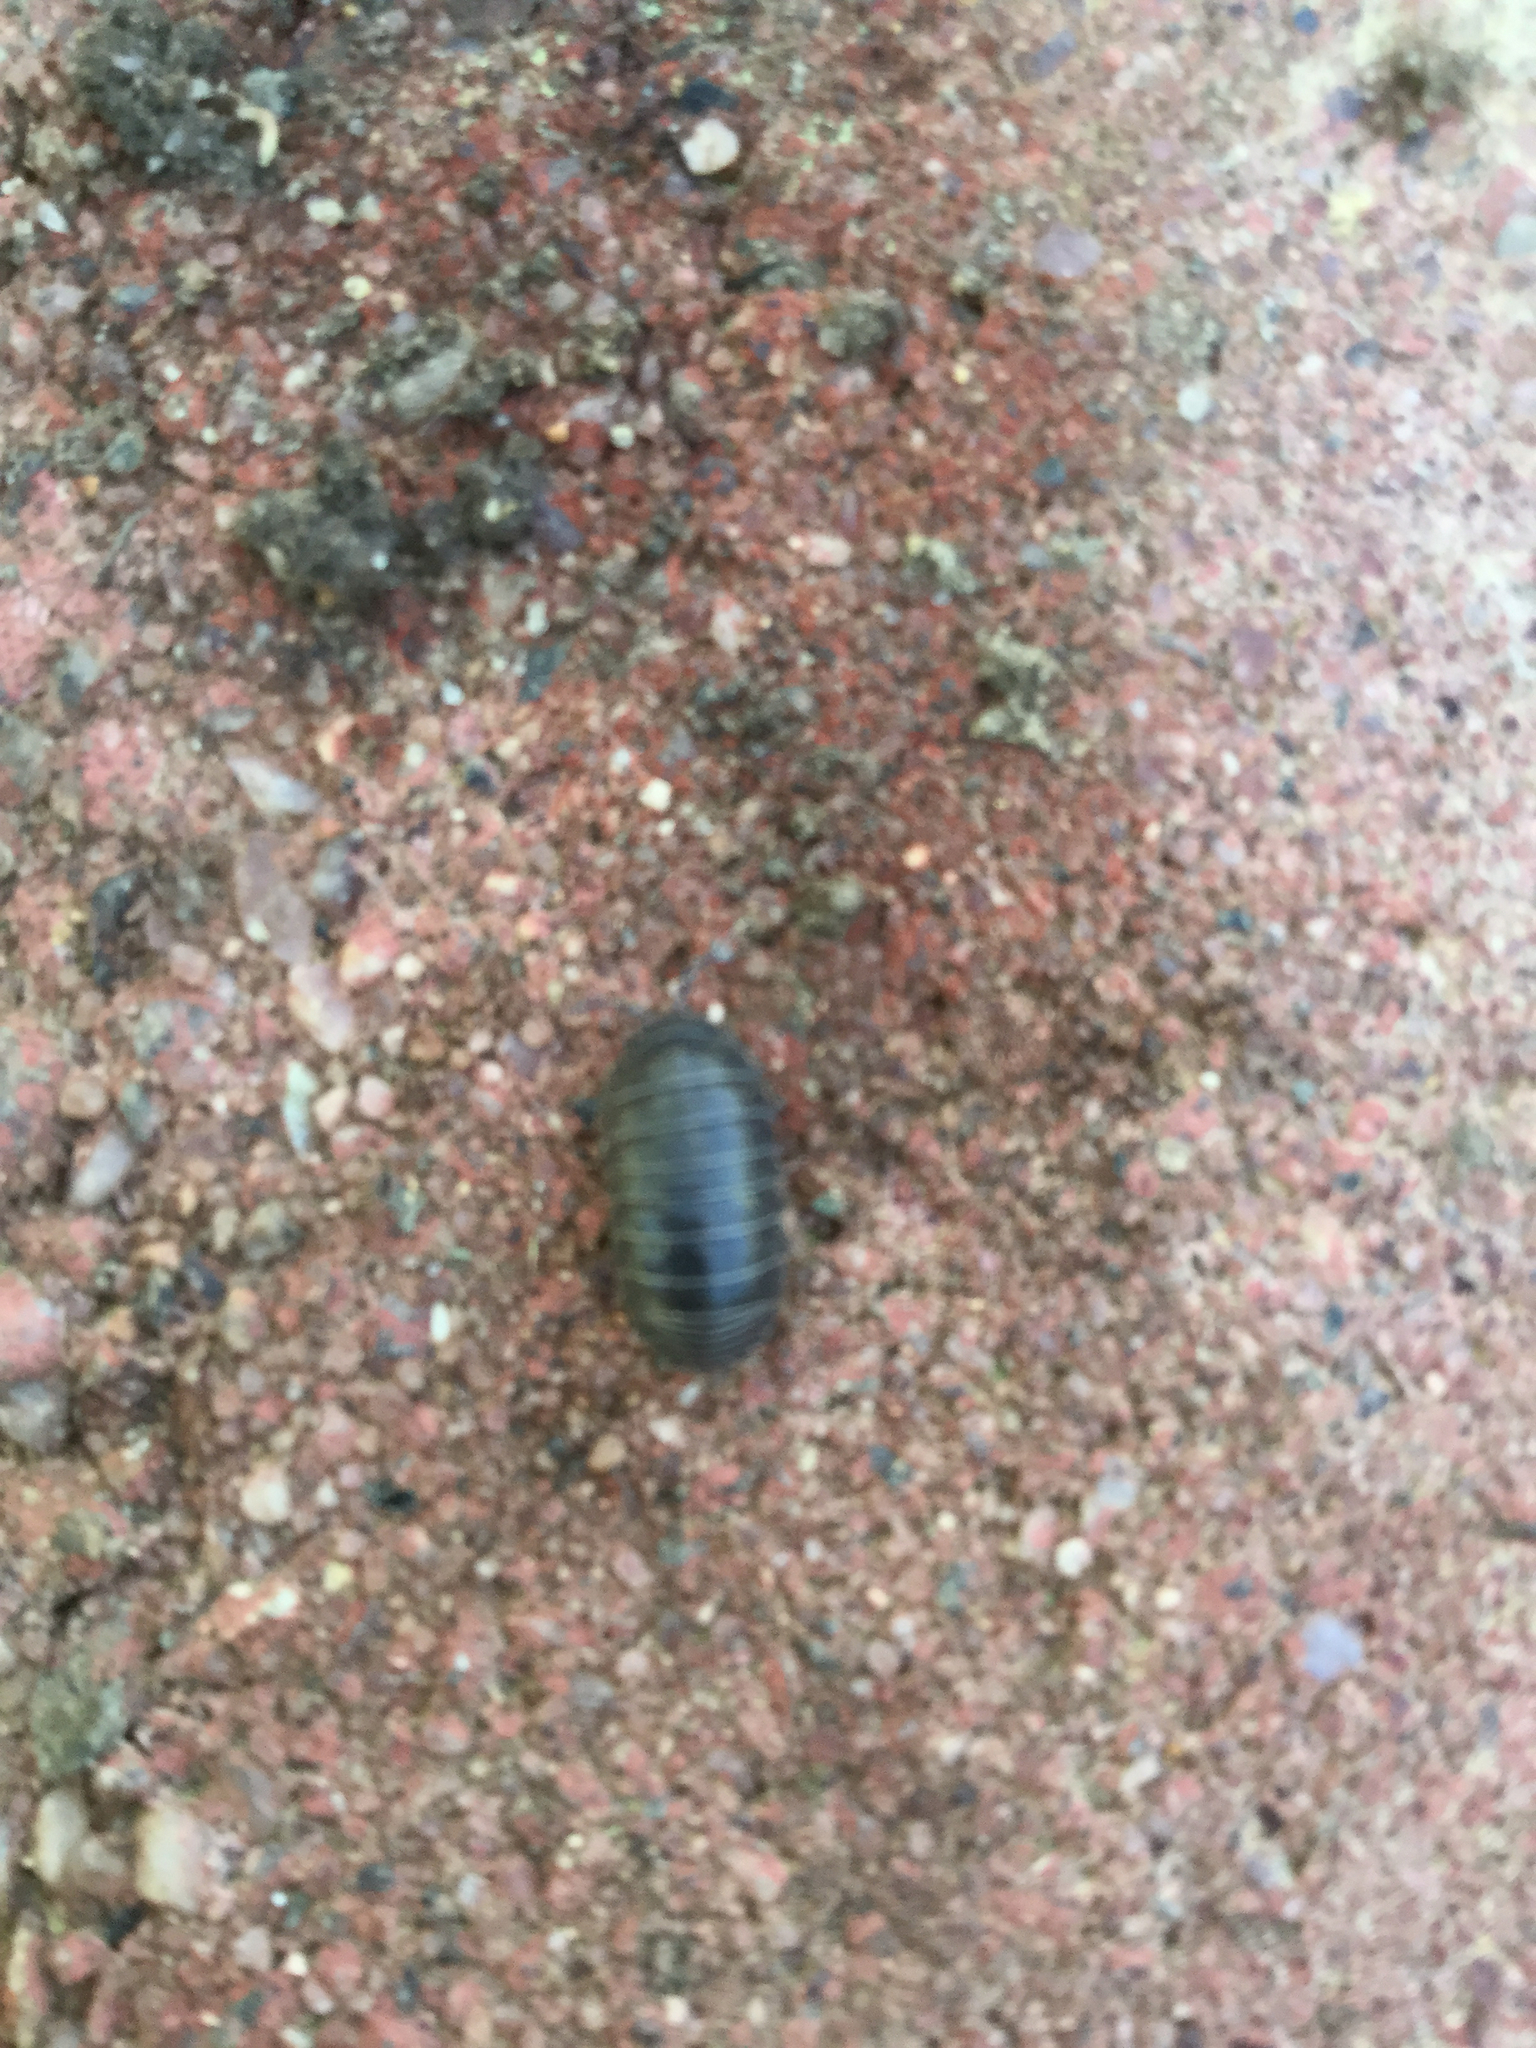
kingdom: Animalia
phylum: Arthropoda
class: Malacostraca
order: Isopoda
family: Armadillidiidae
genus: Armadillidium
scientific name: Armadillidium vulgare
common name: Common pill woodlouse
